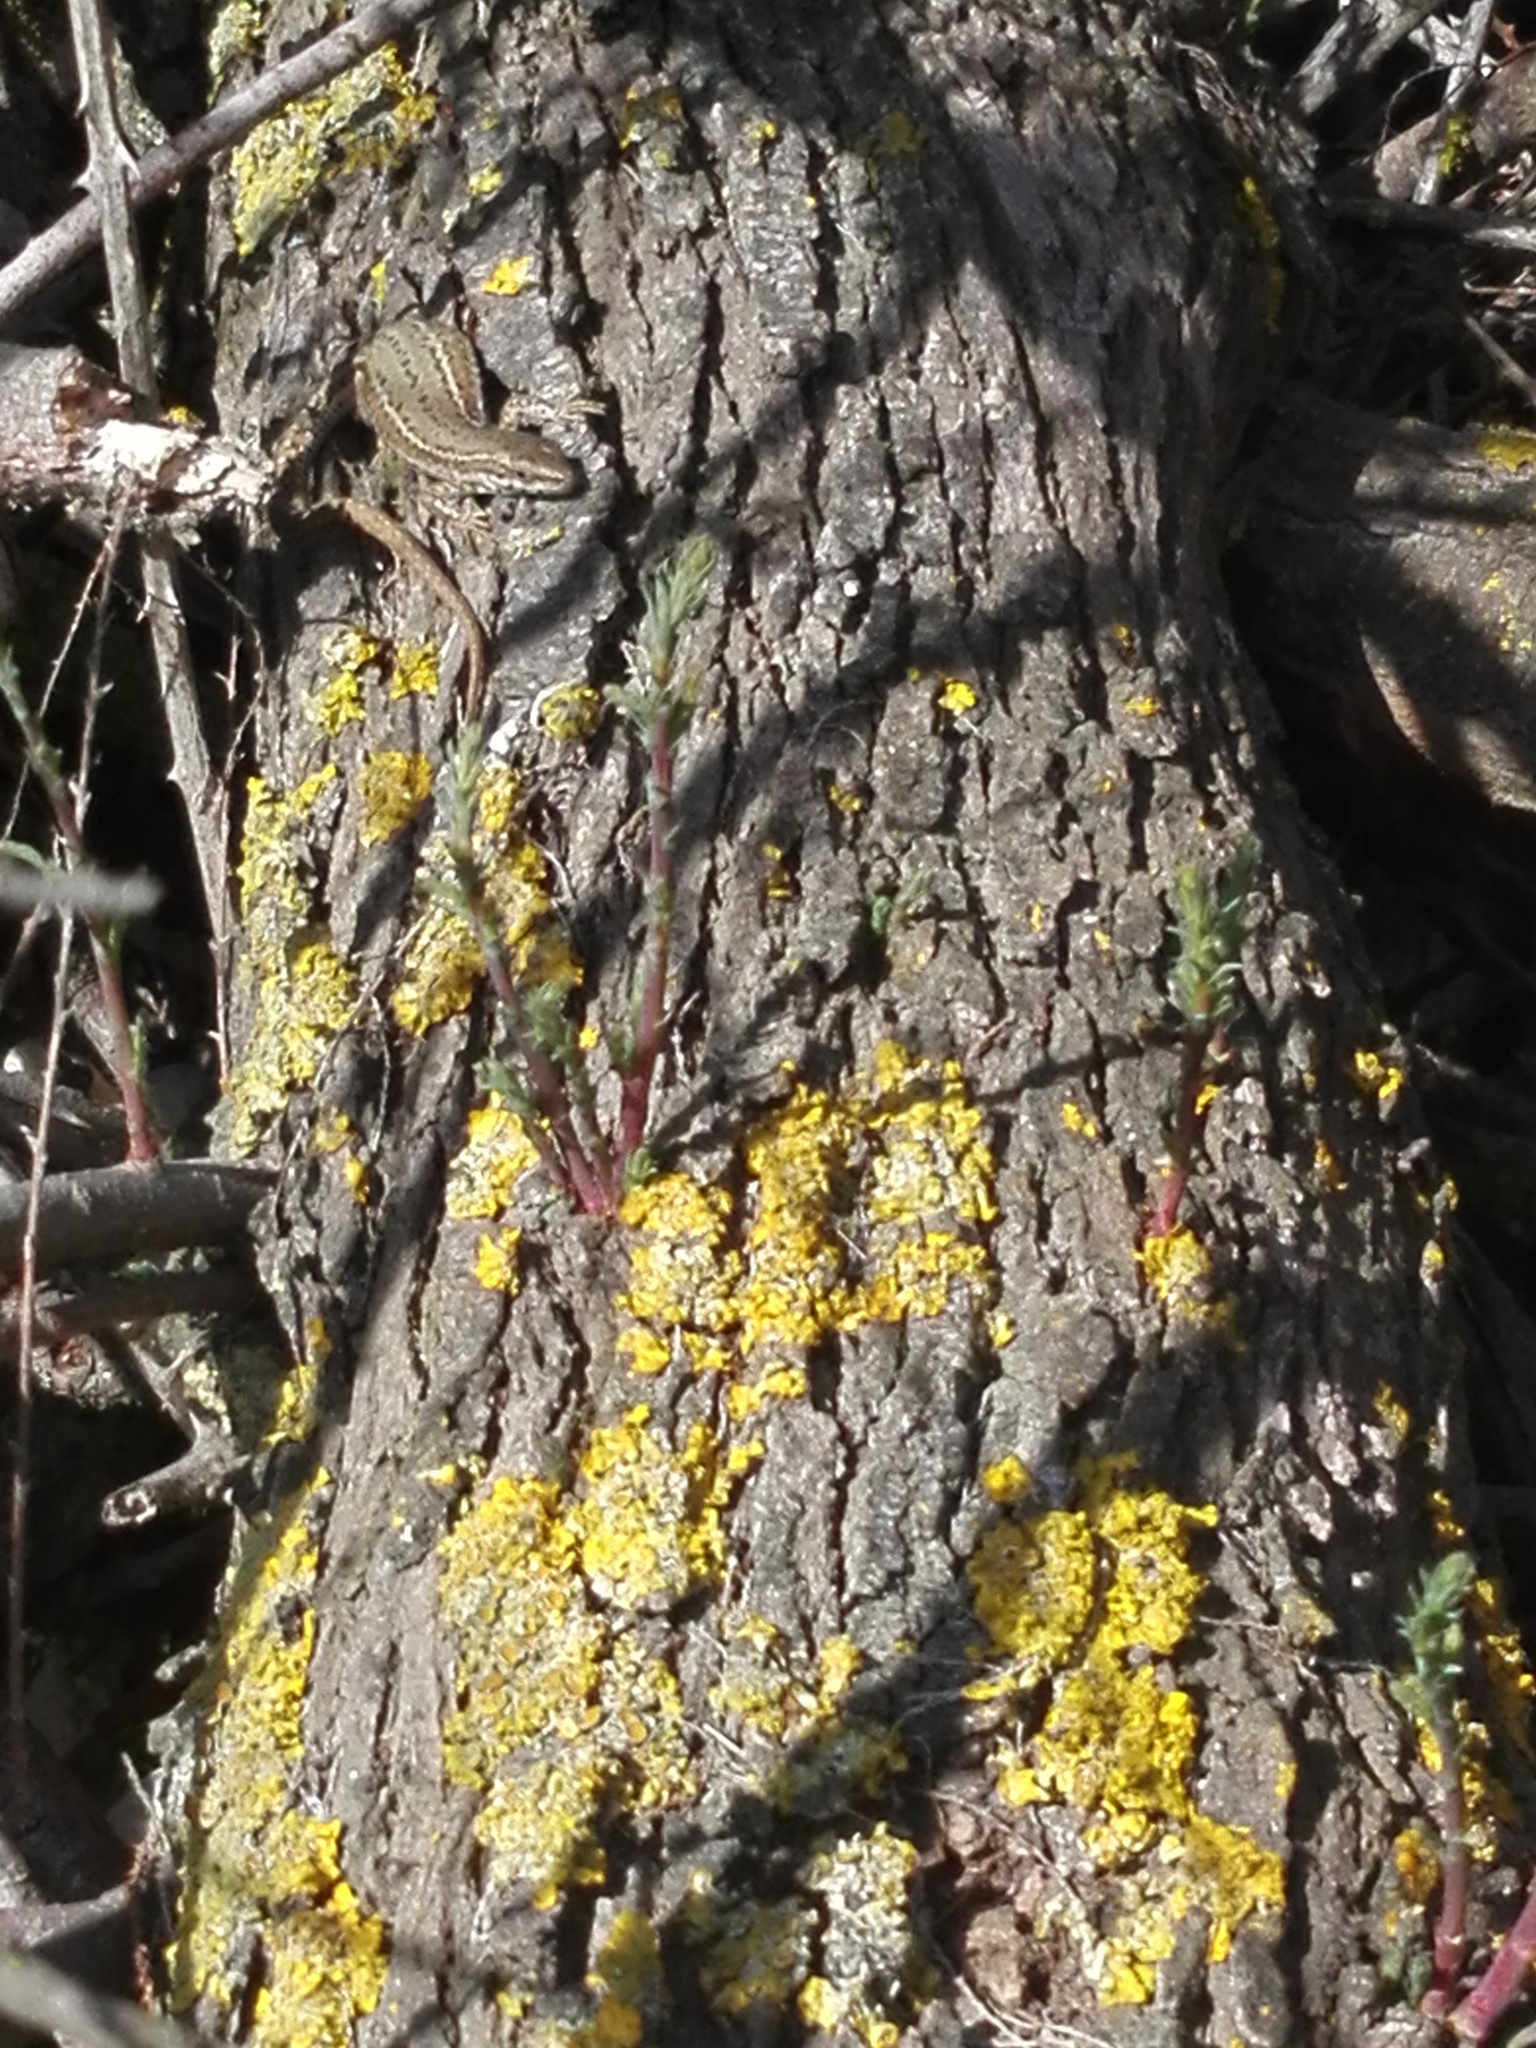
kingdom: Animalia
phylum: Chordata
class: Squamata
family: Lacertidae
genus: Podarcis
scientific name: Podarcis liolepis
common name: Catalonian wall lizard
